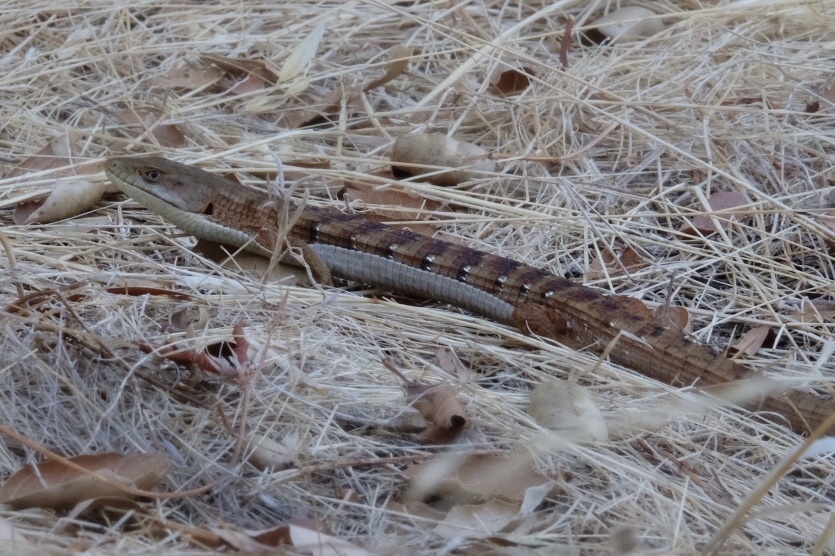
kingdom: Animalia
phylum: Chordata
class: Squamata
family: Anguidae
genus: Elgaria
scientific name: Elgaria multicarinata
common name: Southern alligator lizard
